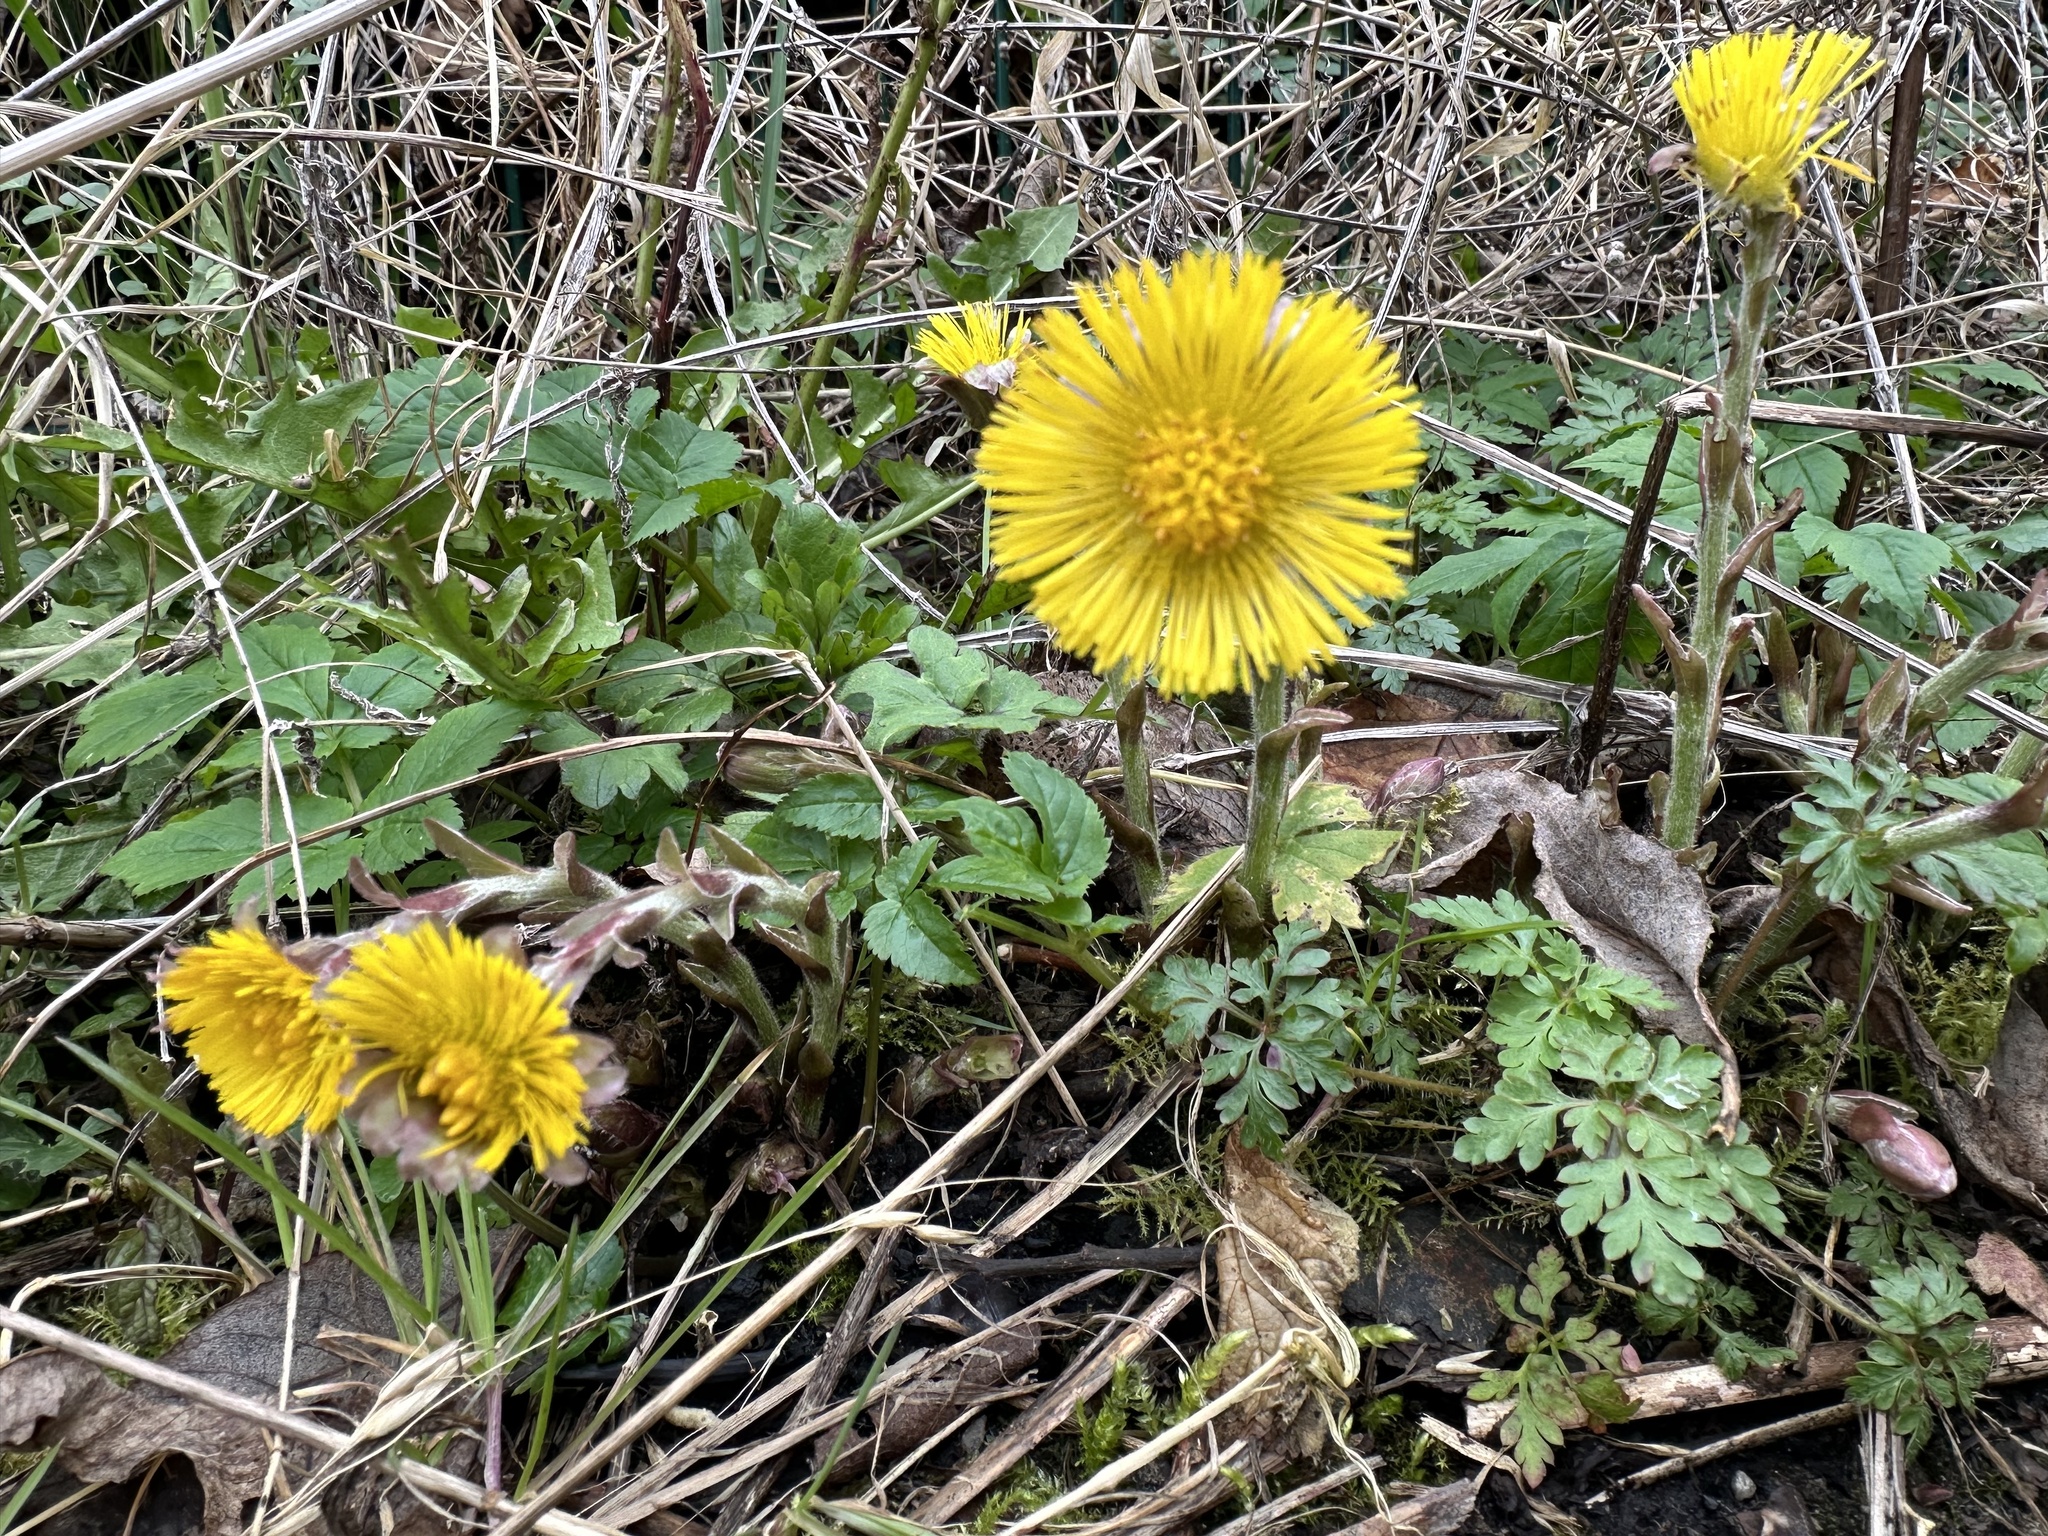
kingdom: Plantae
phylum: Tracheophyta
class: Magnoliopsida
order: Asterales
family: Asteraceae
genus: Tussilago
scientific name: Tussilago farfara
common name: Coltsfoot
